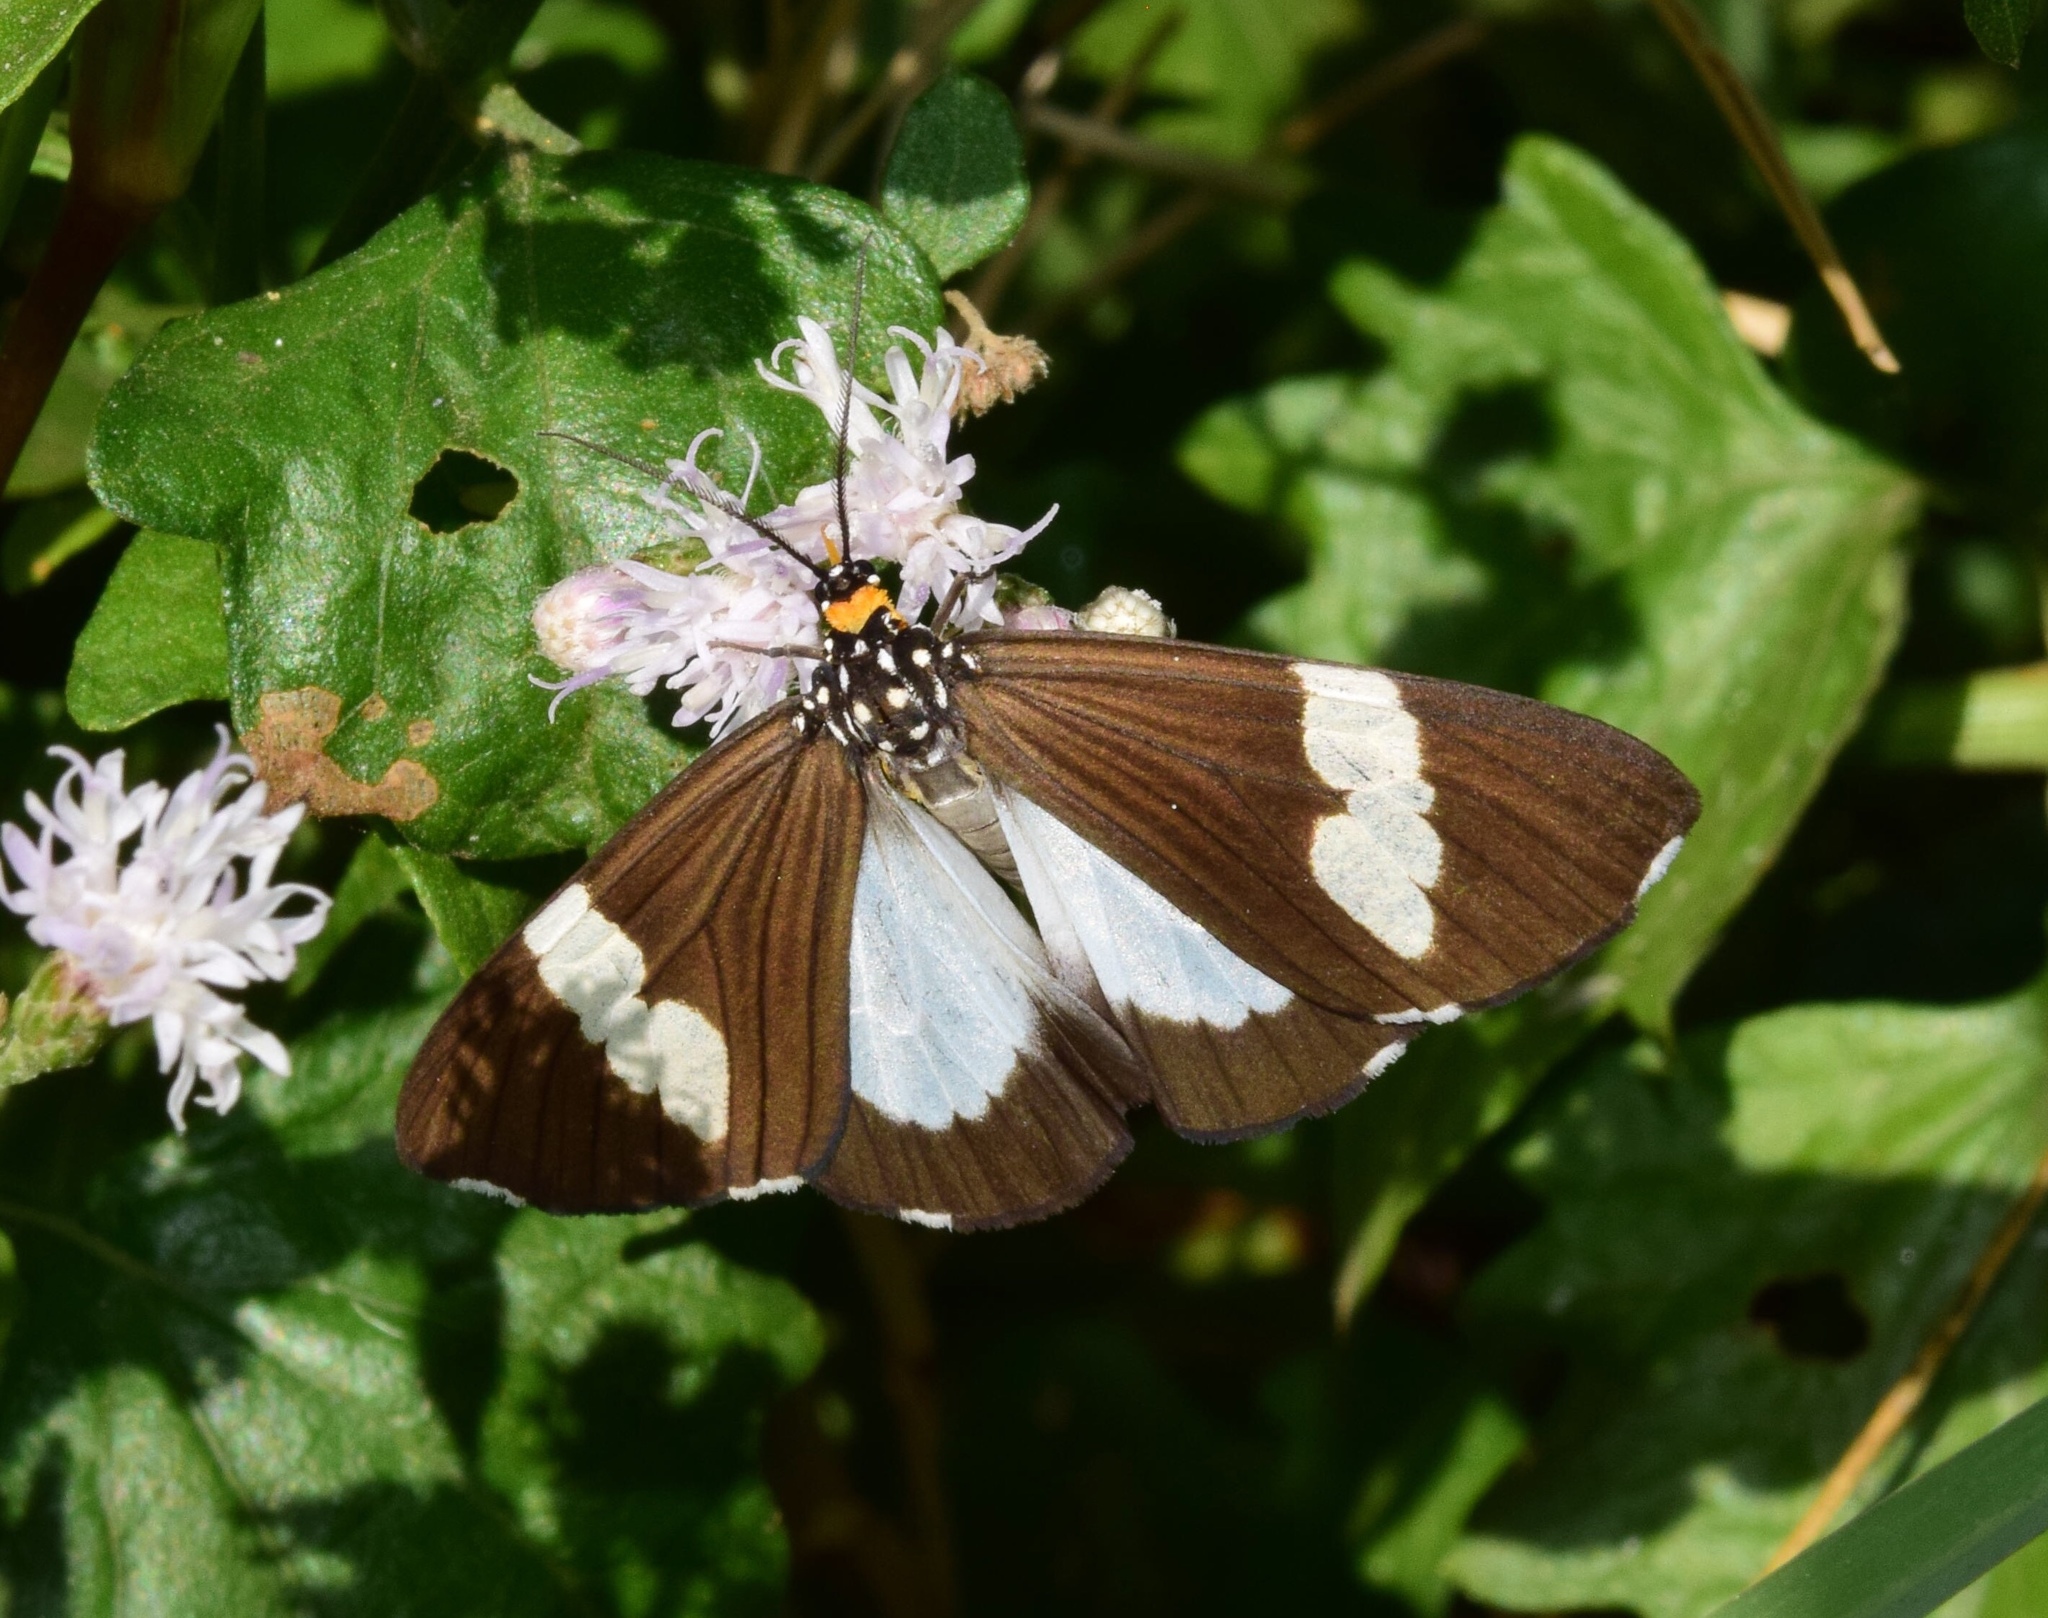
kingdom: Animalia
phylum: Arthropoda
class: Insecta
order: Lepidoptera
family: Erebidae
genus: Nyctemera
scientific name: Nyctemera
